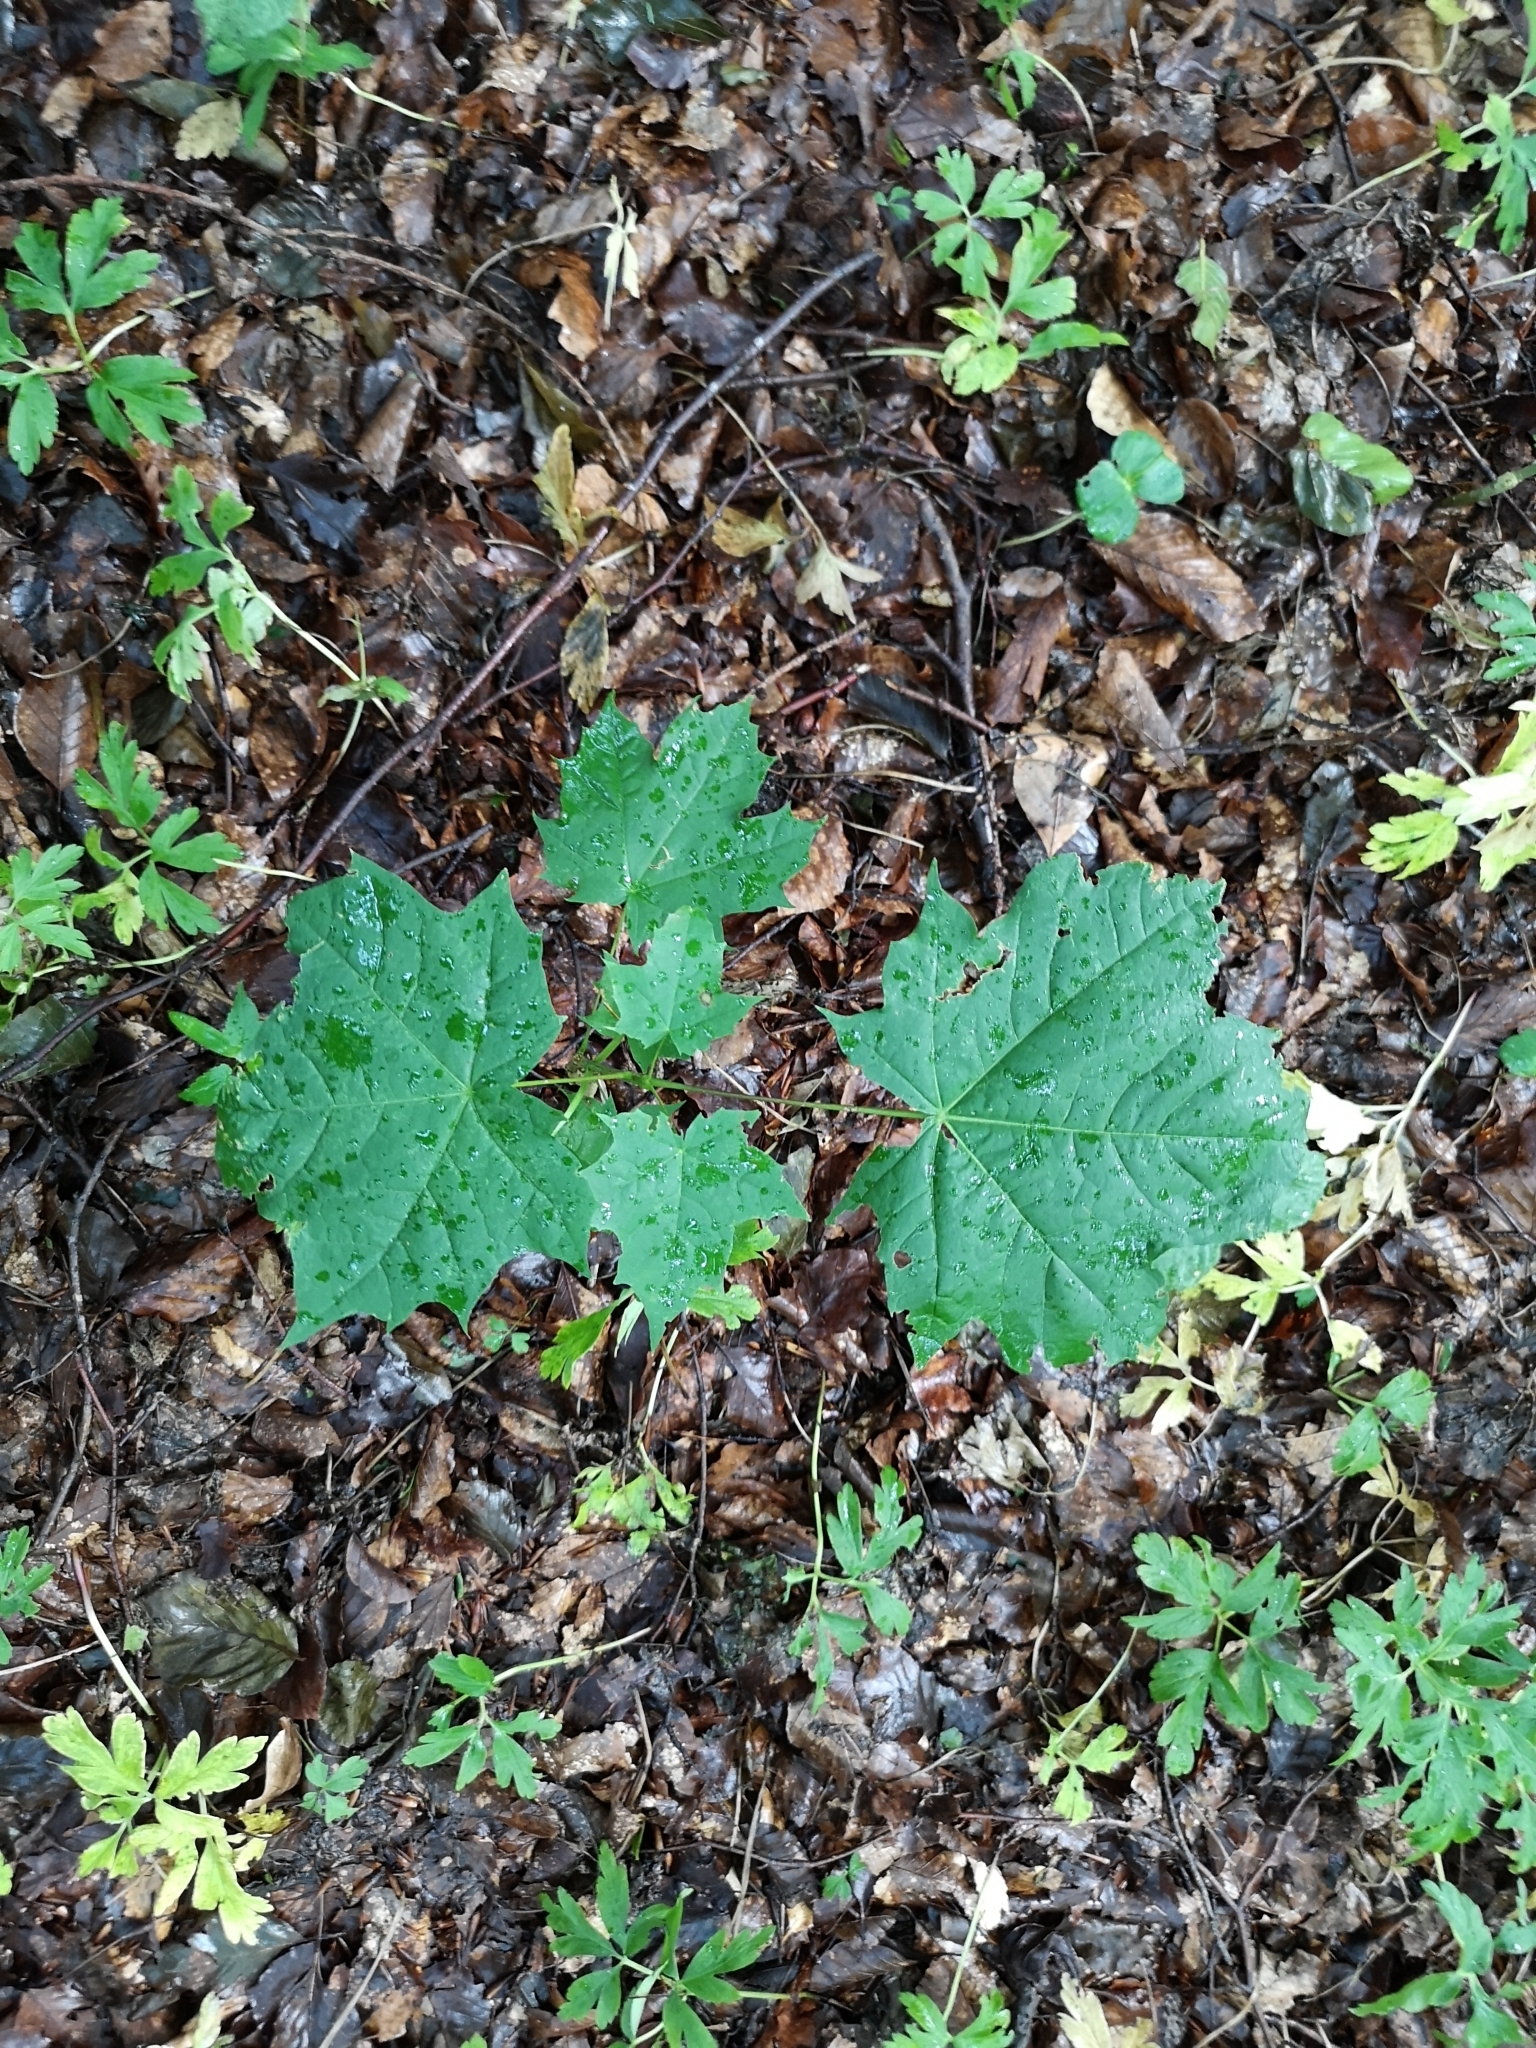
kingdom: Plantae
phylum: Tracheophyta
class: Magnoliopsida
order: Sapindales
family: Sapindaceae
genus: Acer
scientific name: Acer platanoides
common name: Norway maple
